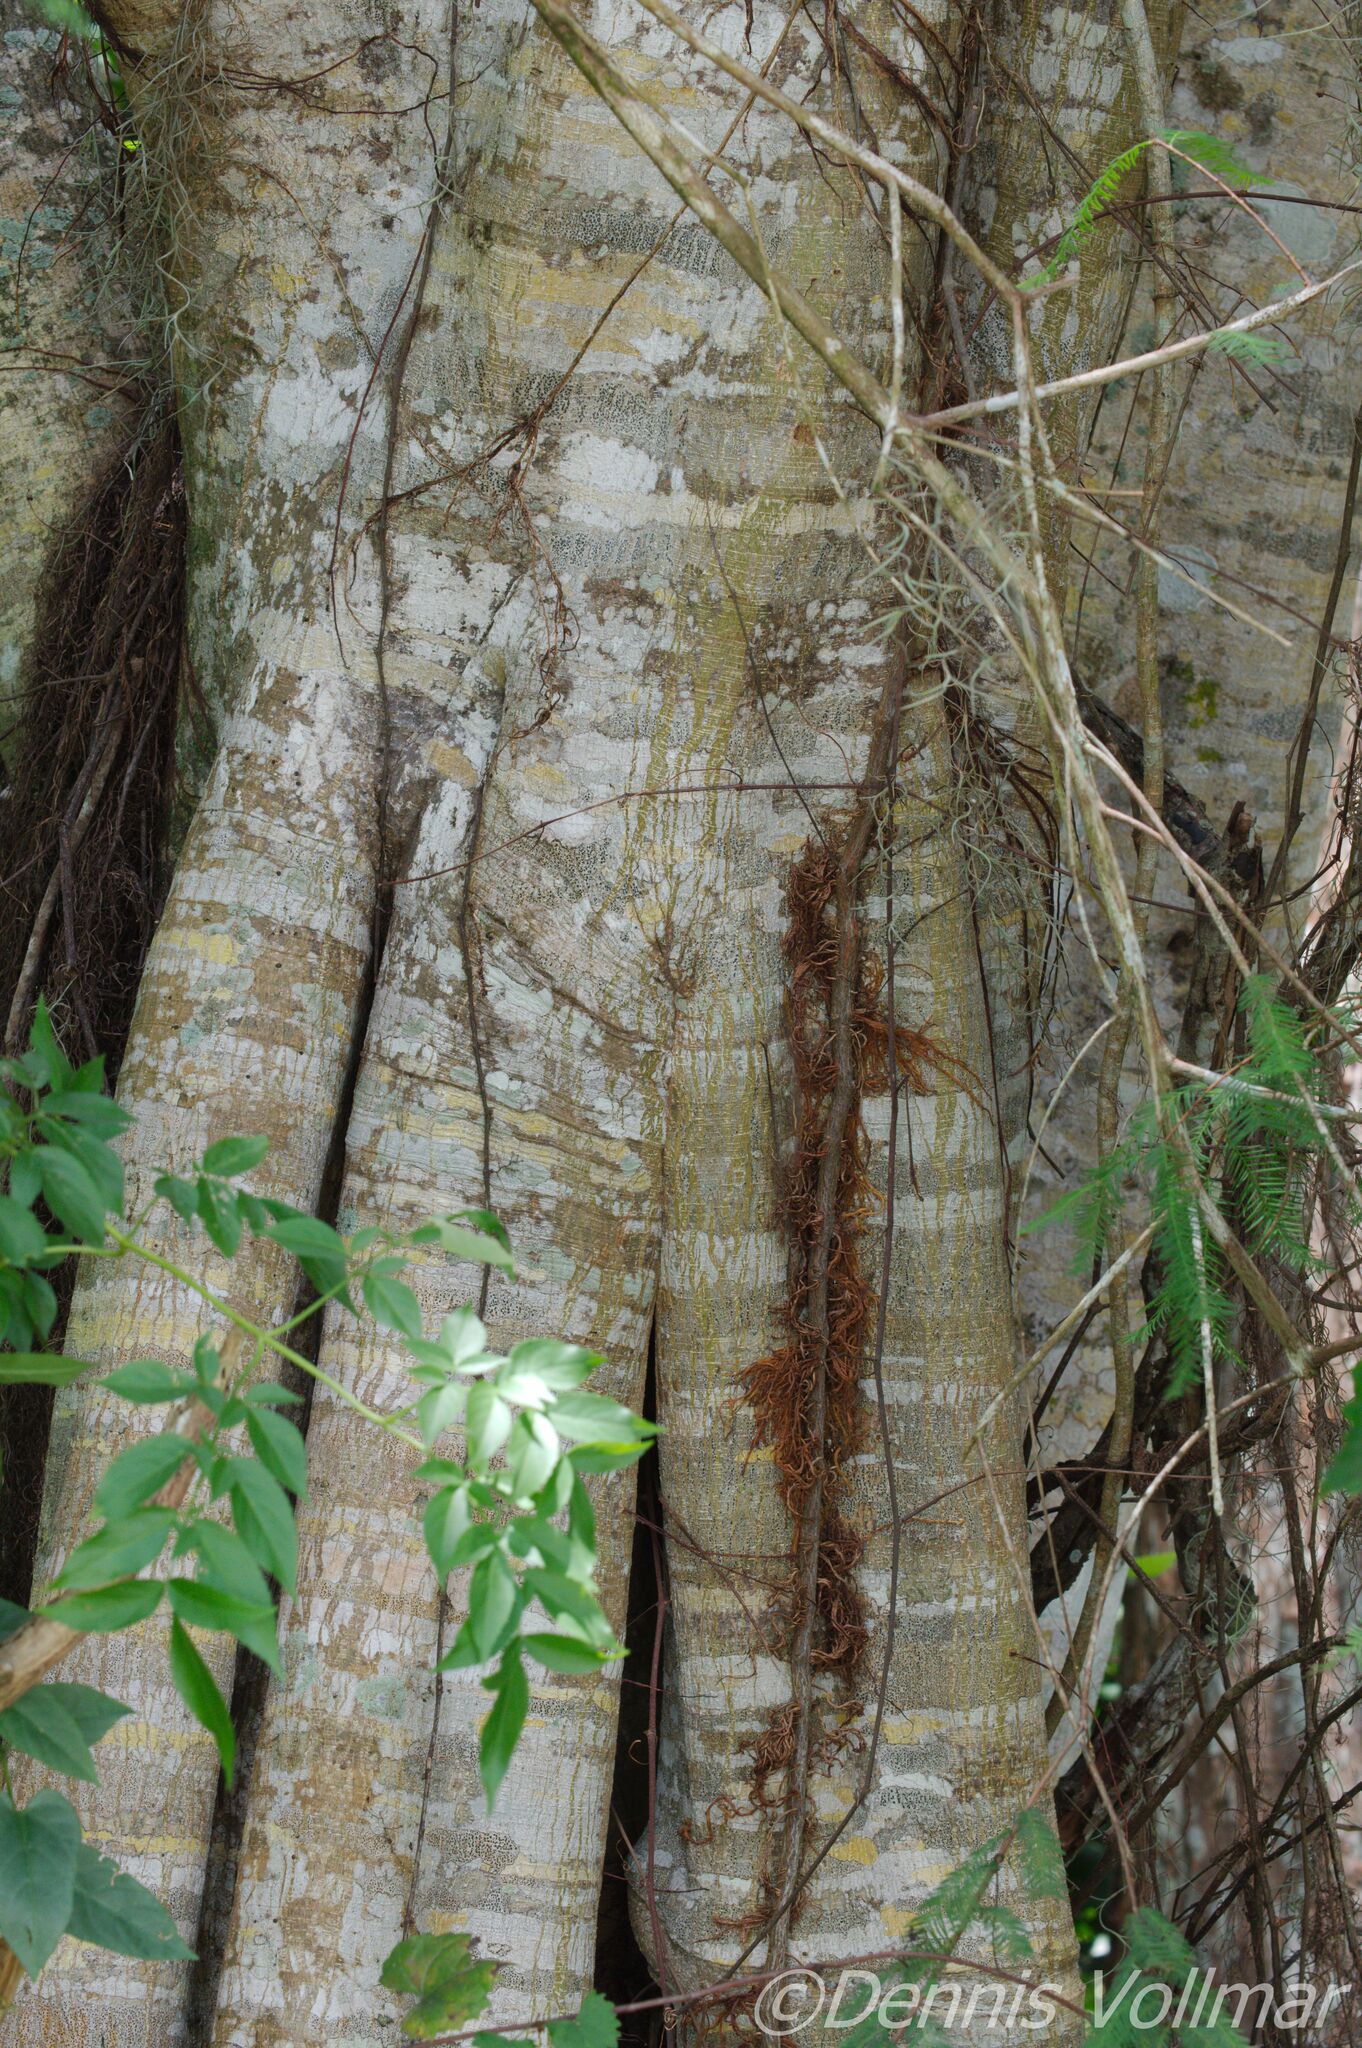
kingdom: Plantae
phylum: Tracheophyta
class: Magnoliopsida
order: Rosales
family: Moraceae
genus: Ficus
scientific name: Ficus aurea
